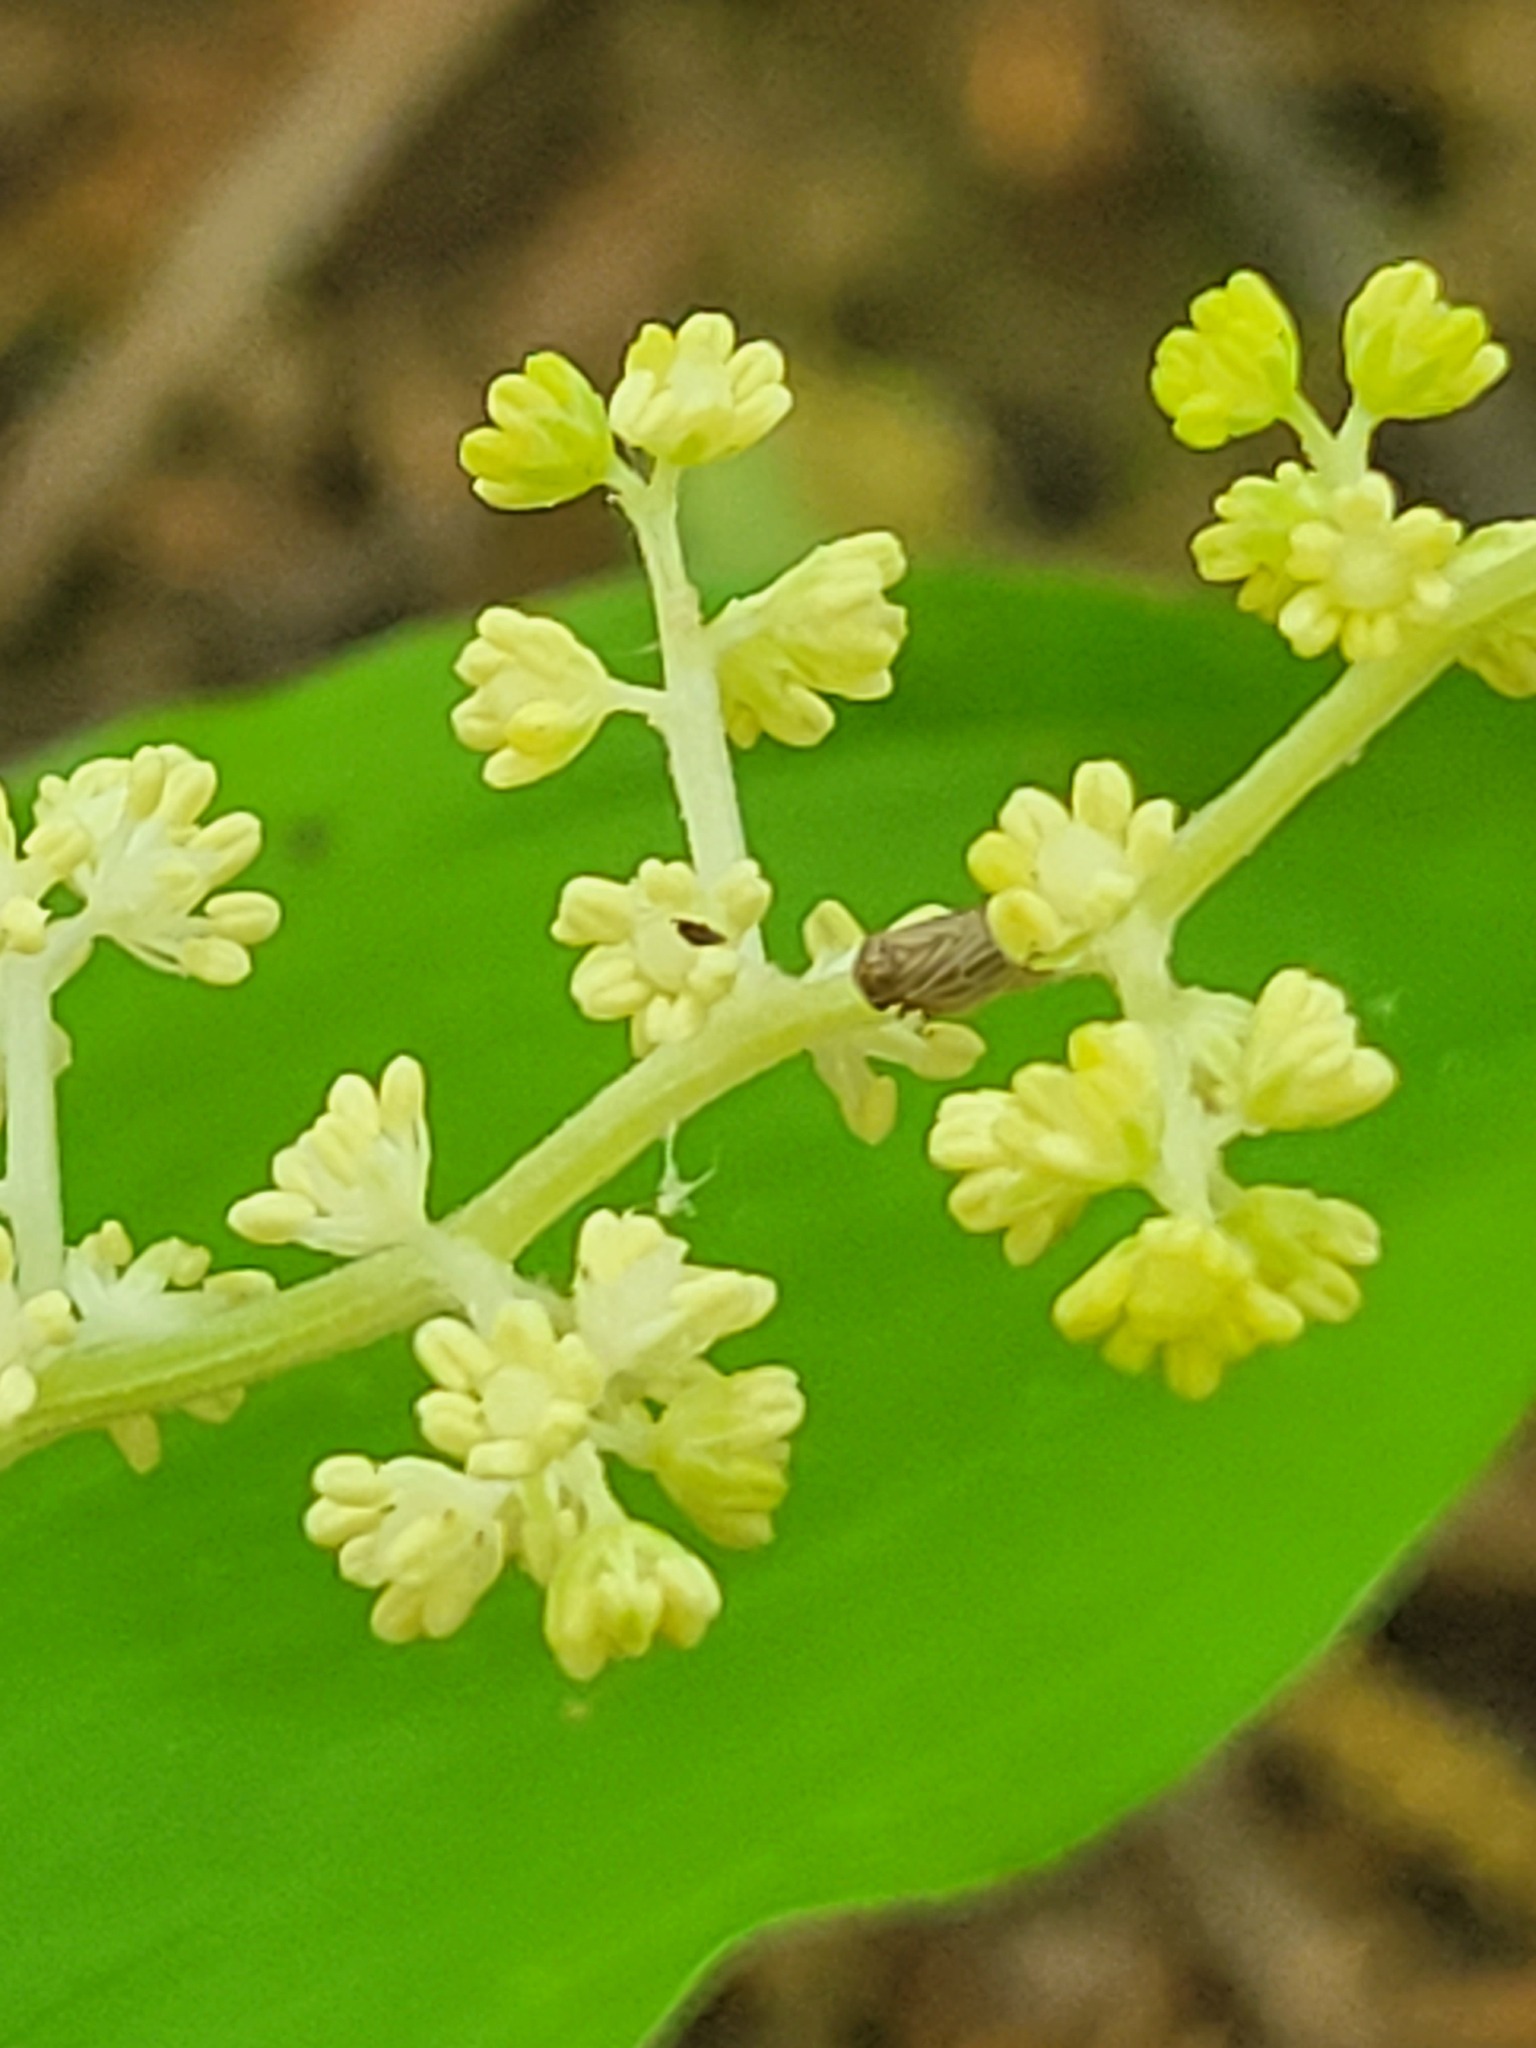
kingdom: Plantae
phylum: Tracheophyta
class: Liliopsida
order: Asparagales
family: Asparagaceae
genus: Maianthemum
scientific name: Maianthemum racemosum
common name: False spikenard
